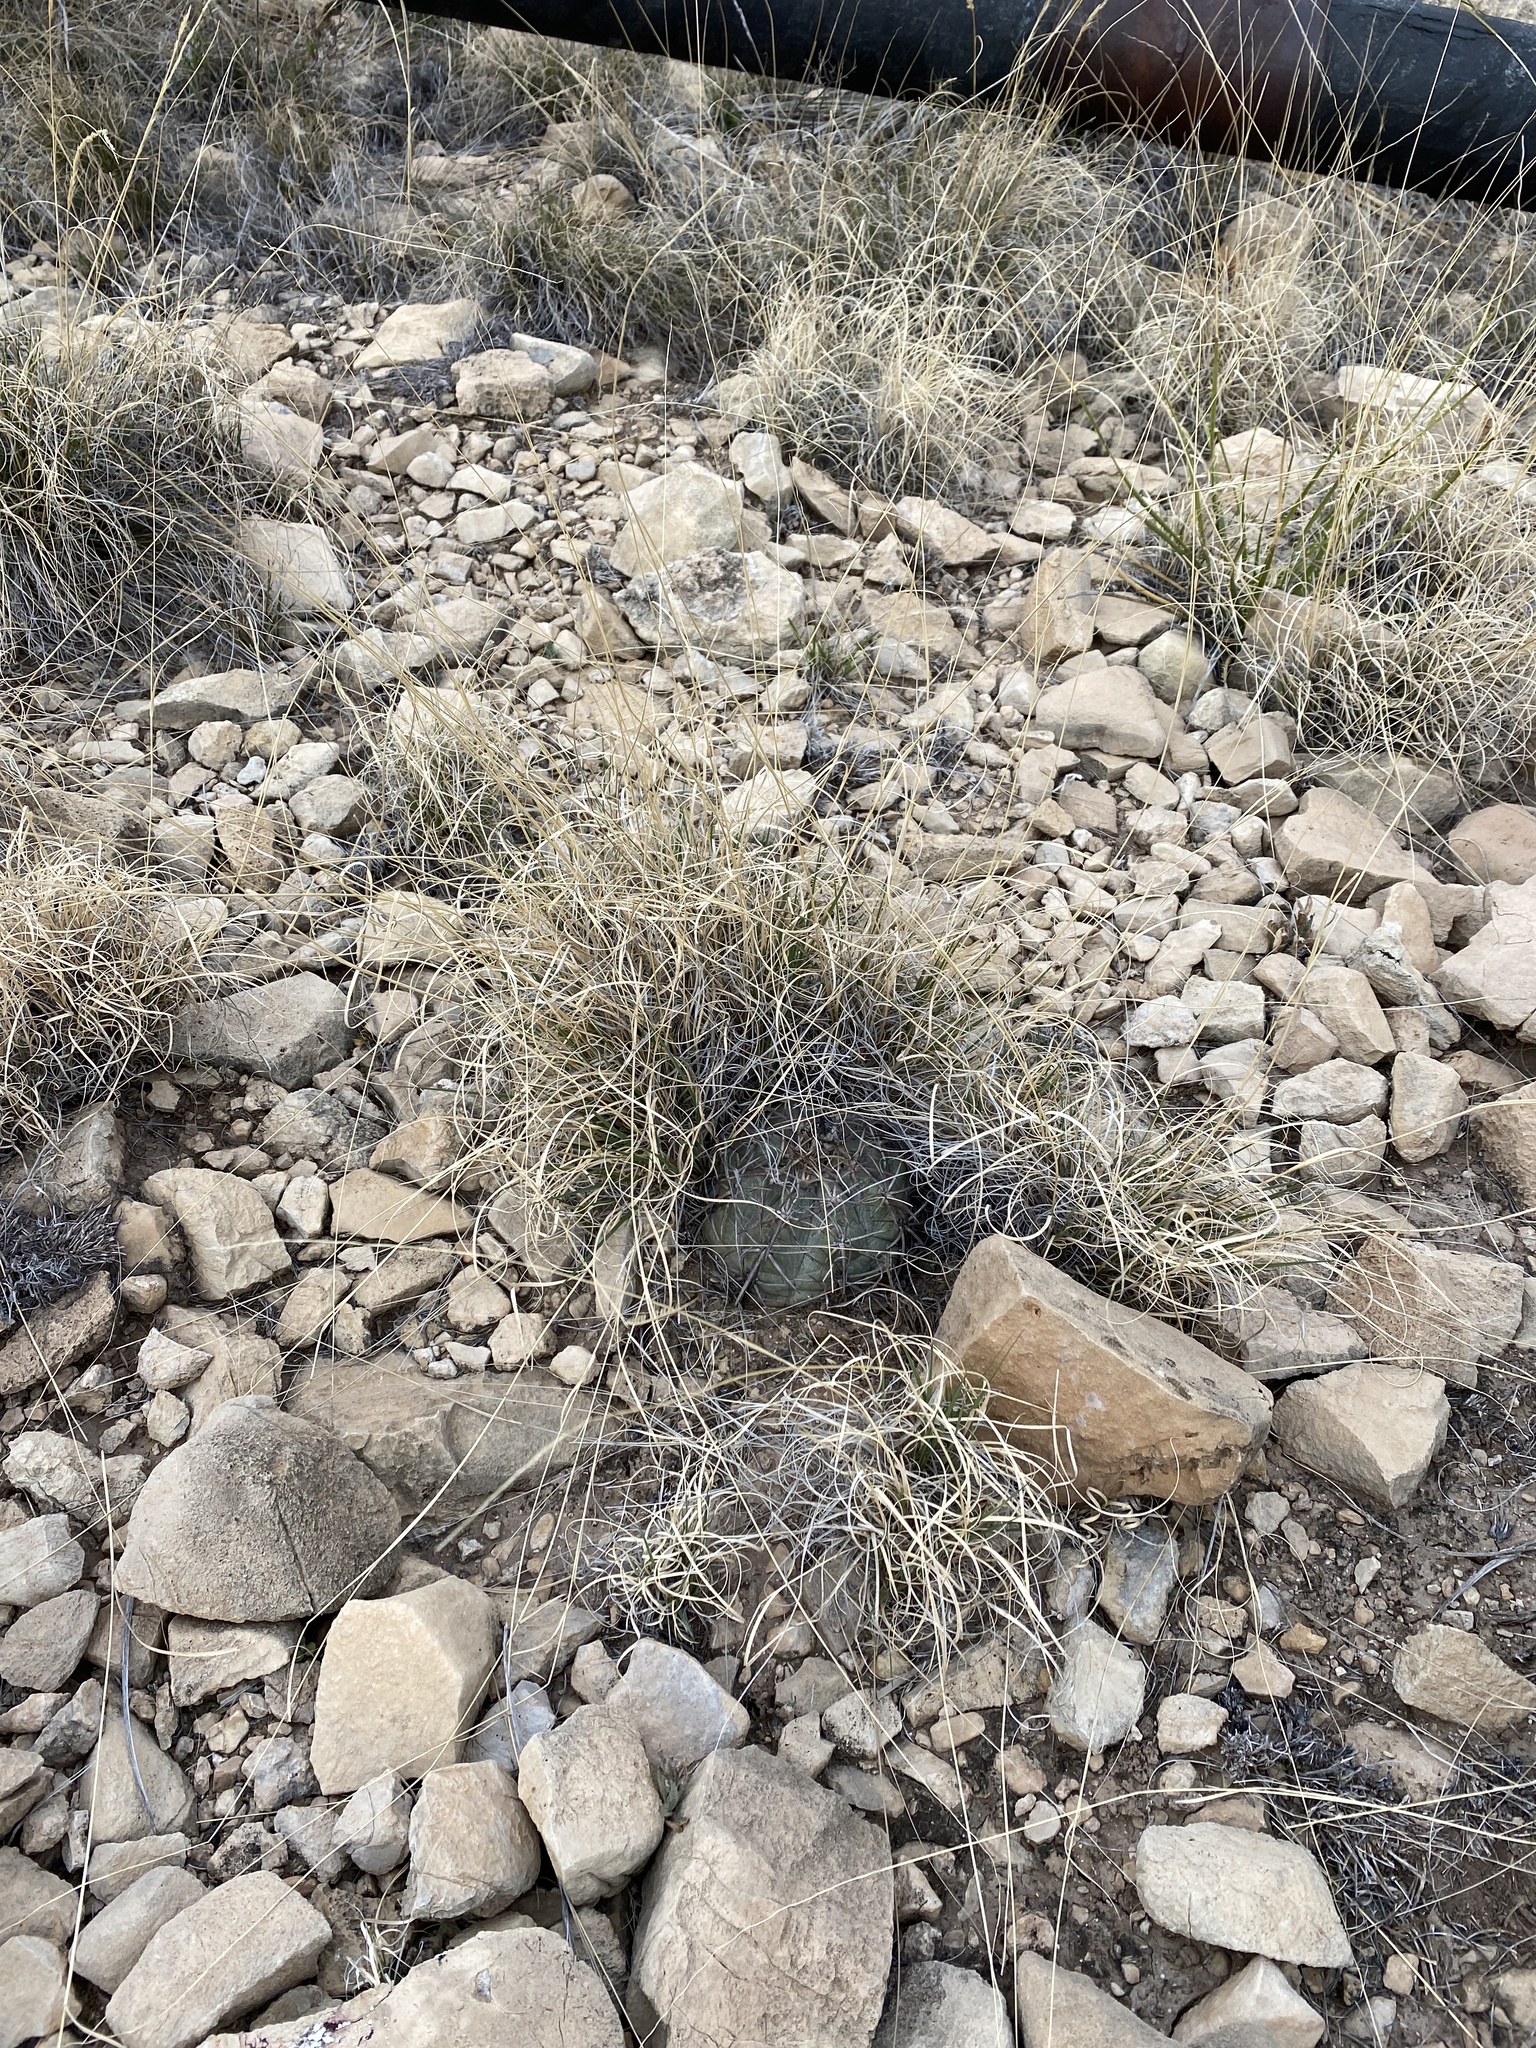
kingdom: Plantae
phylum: Tracheophyta
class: Magnoliopsida
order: Caryophyllales
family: Cactaceae
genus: Echinocactus
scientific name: Echinocactus horizonthalonius
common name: Devilshead
